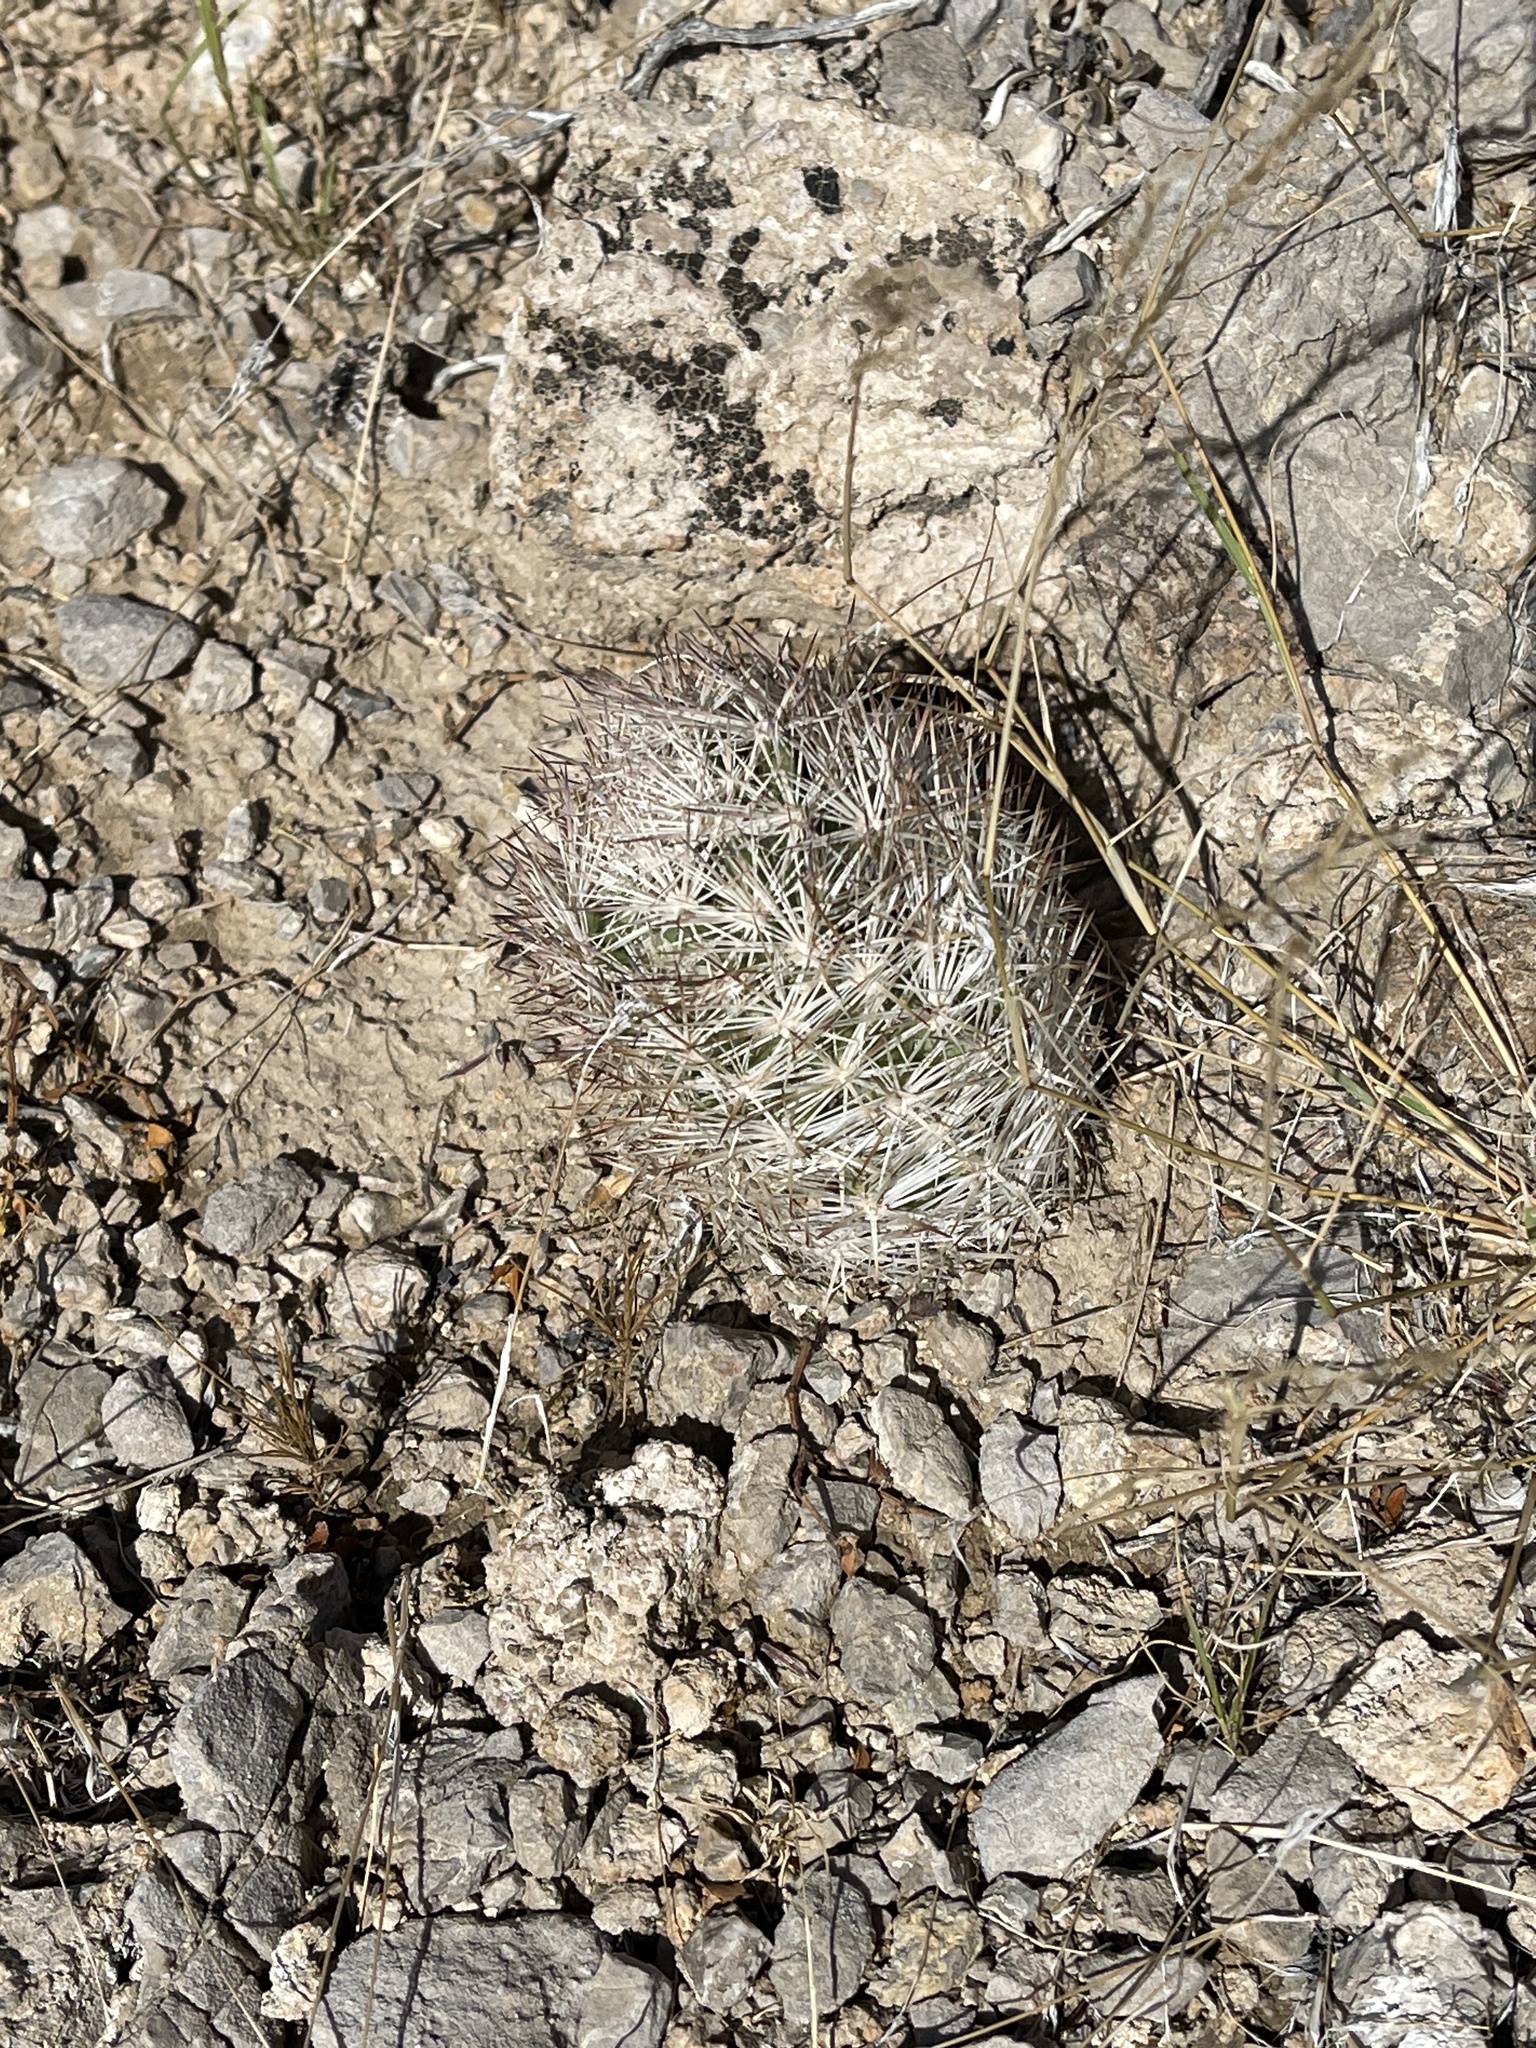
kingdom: Plantae
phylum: Tracheophyta
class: Magnoliopsida
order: Caryophyllales
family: Cactaceae
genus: Pelecyphora
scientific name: Pelecyphora dasyacantha
